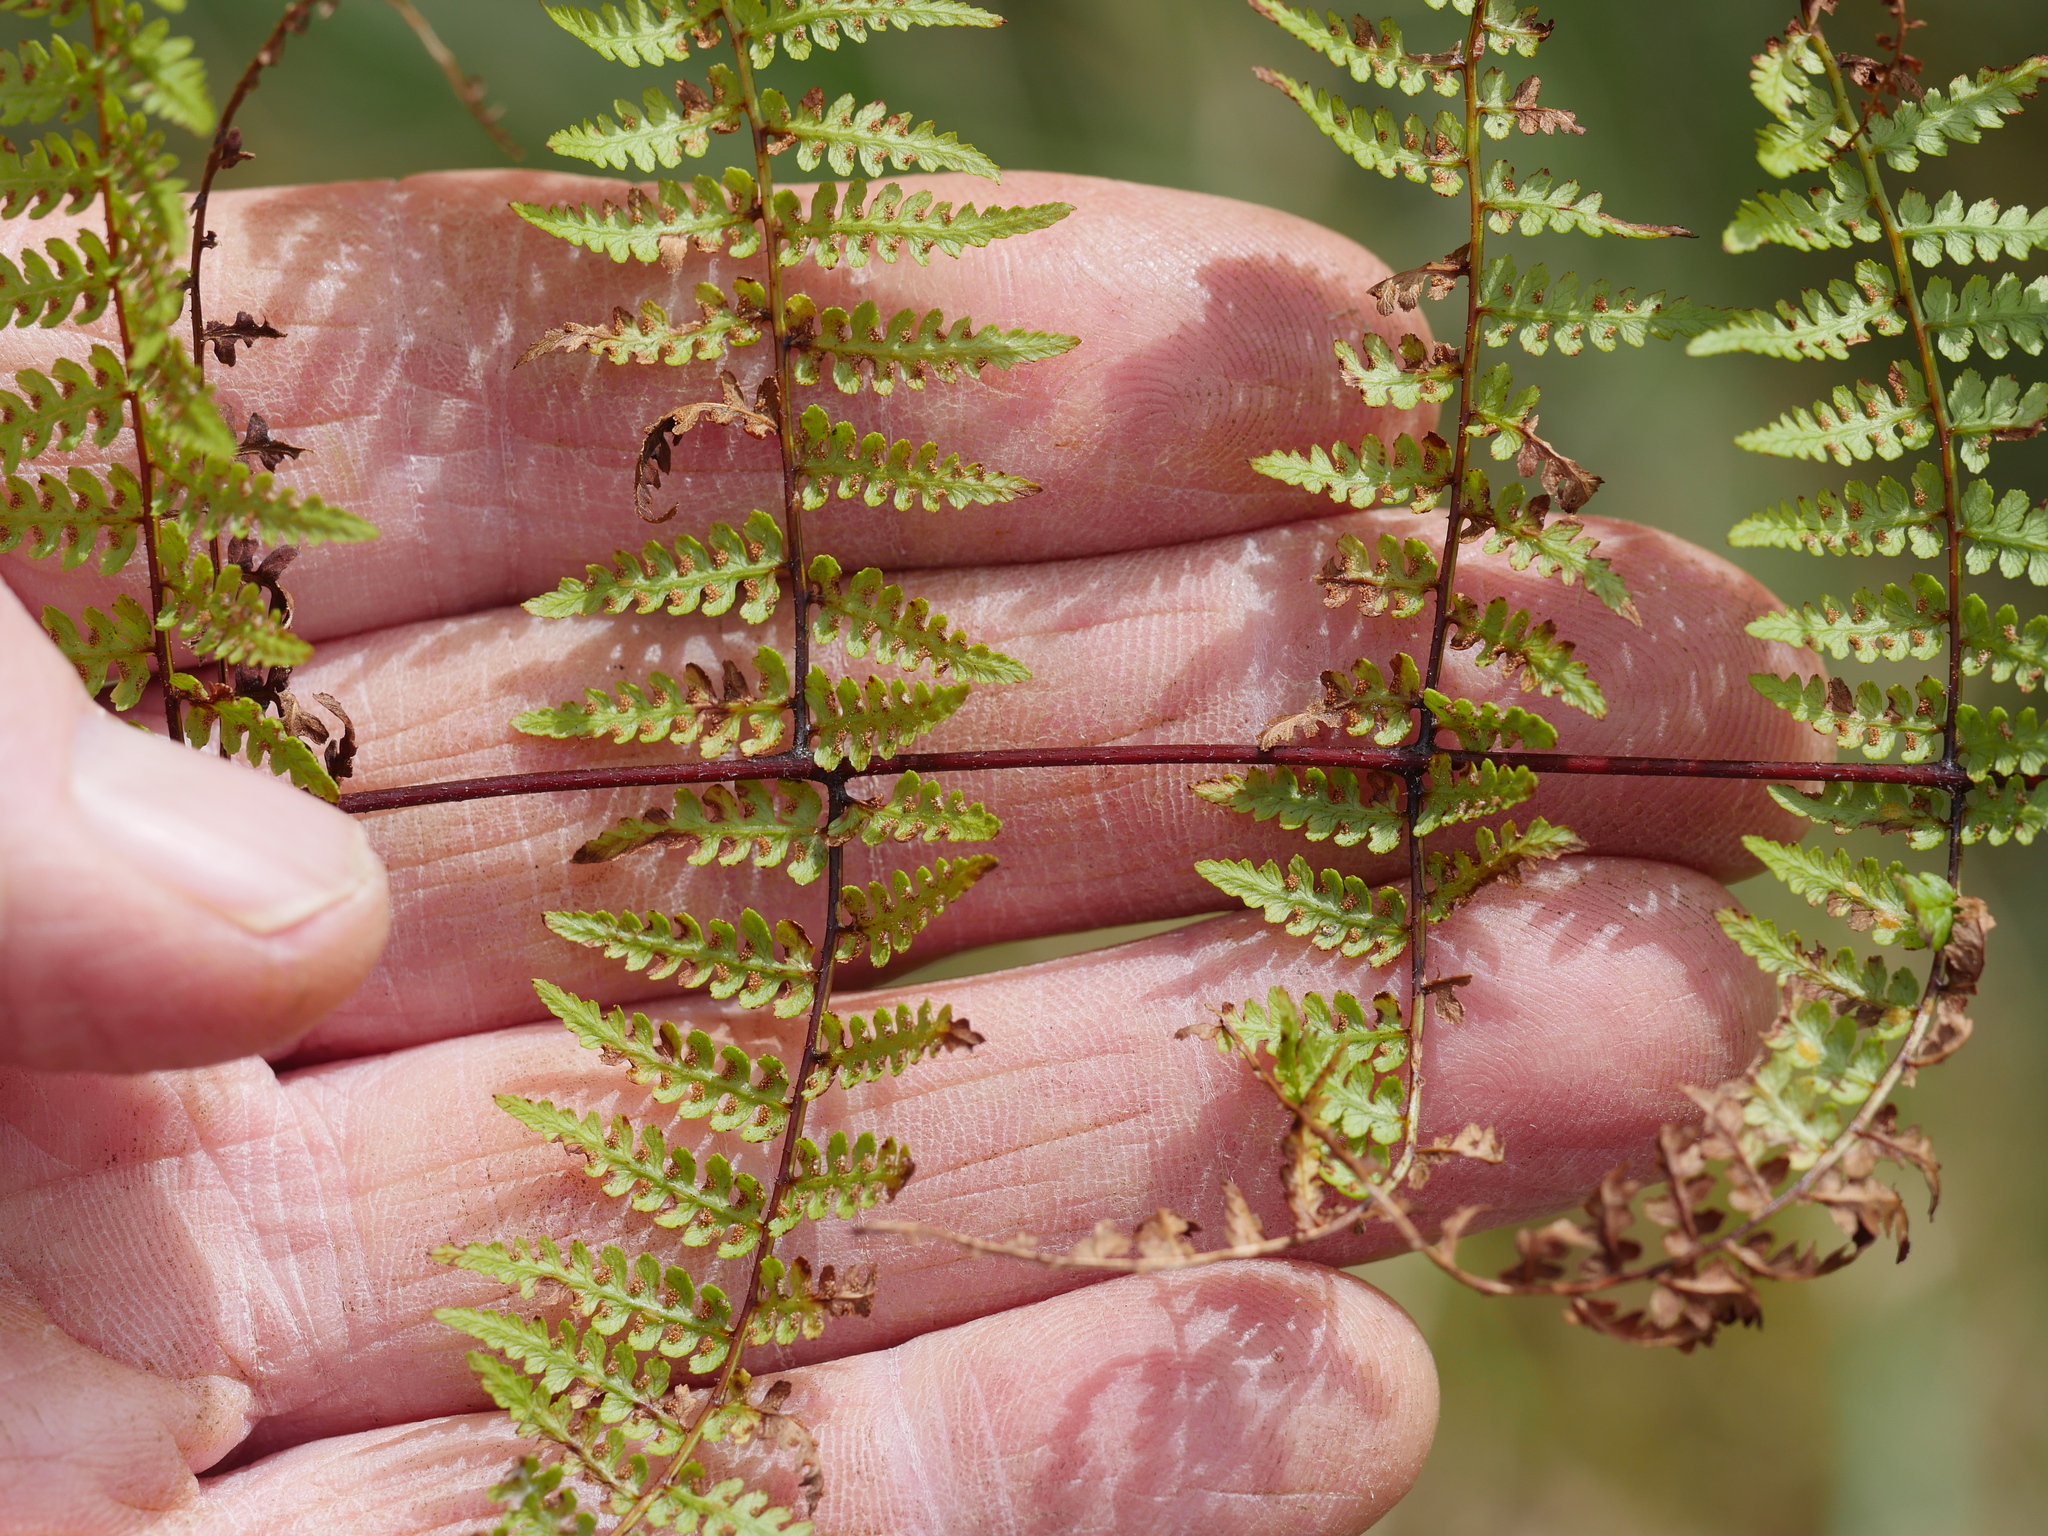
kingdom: Plantae
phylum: Tracheophyta
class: Polypodiopsida
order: Polypodiales
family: Dennstaedtiaceae
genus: Hiya
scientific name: Hiya distans
